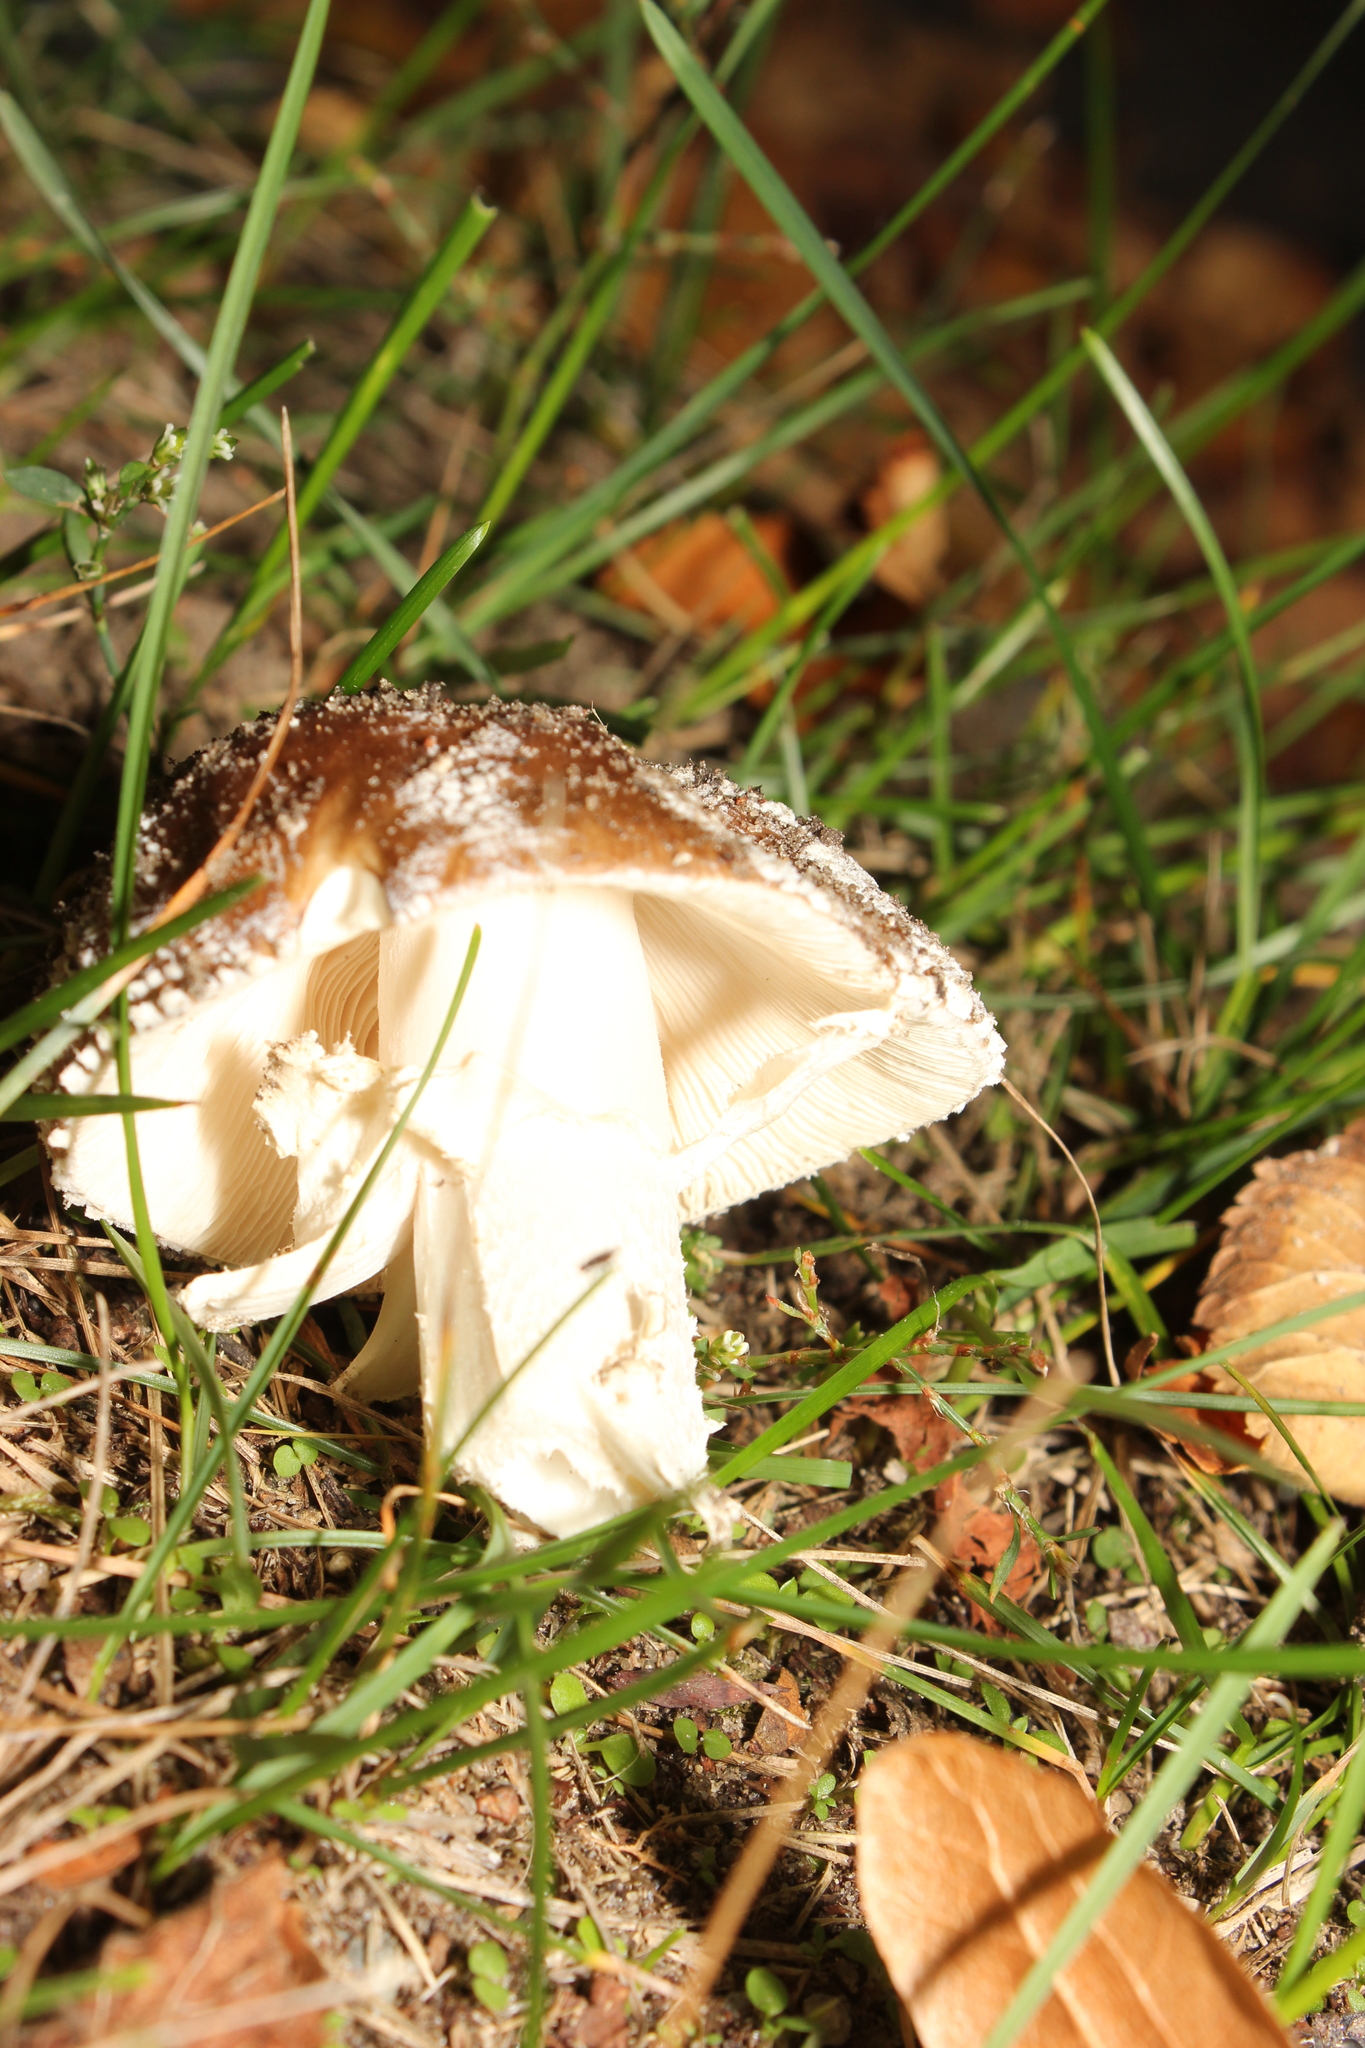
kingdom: Fungi
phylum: Basidiomycota
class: Agaricomycetes
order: Agaricales
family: Amanitaceae
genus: Amanita
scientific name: Amanita pantherina
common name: Panthercap
